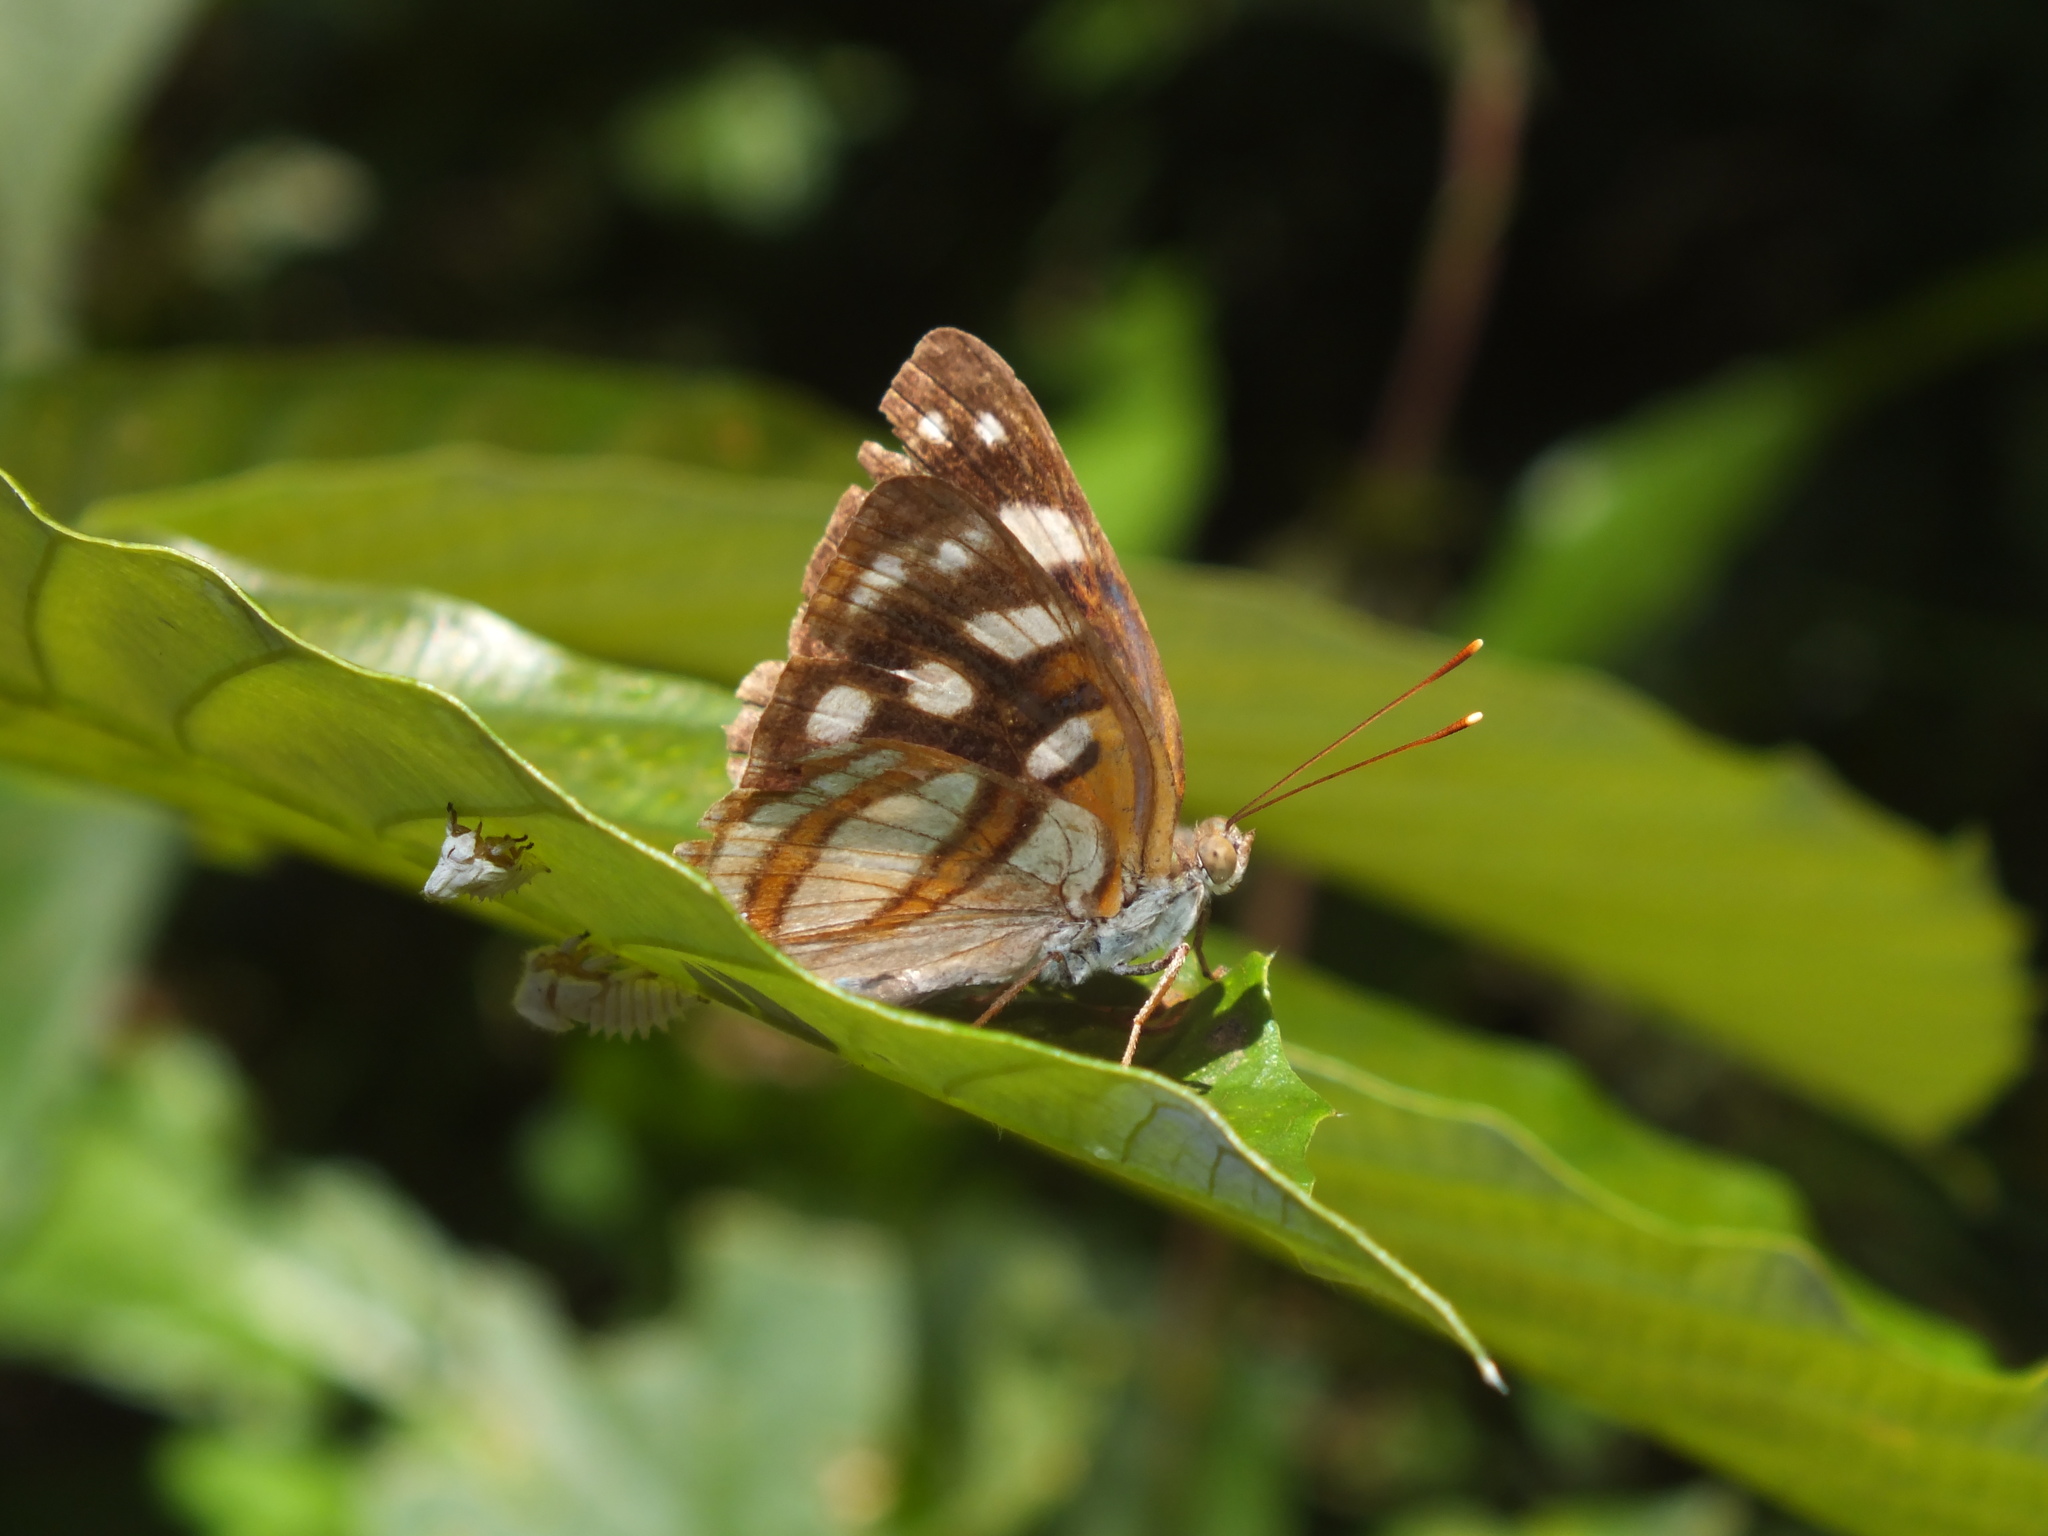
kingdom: Animalia
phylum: Arthropoda
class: Insecta
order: Lepidoptera
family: Nymphalidae
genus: Dynamine
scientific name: Dynamine racidula
